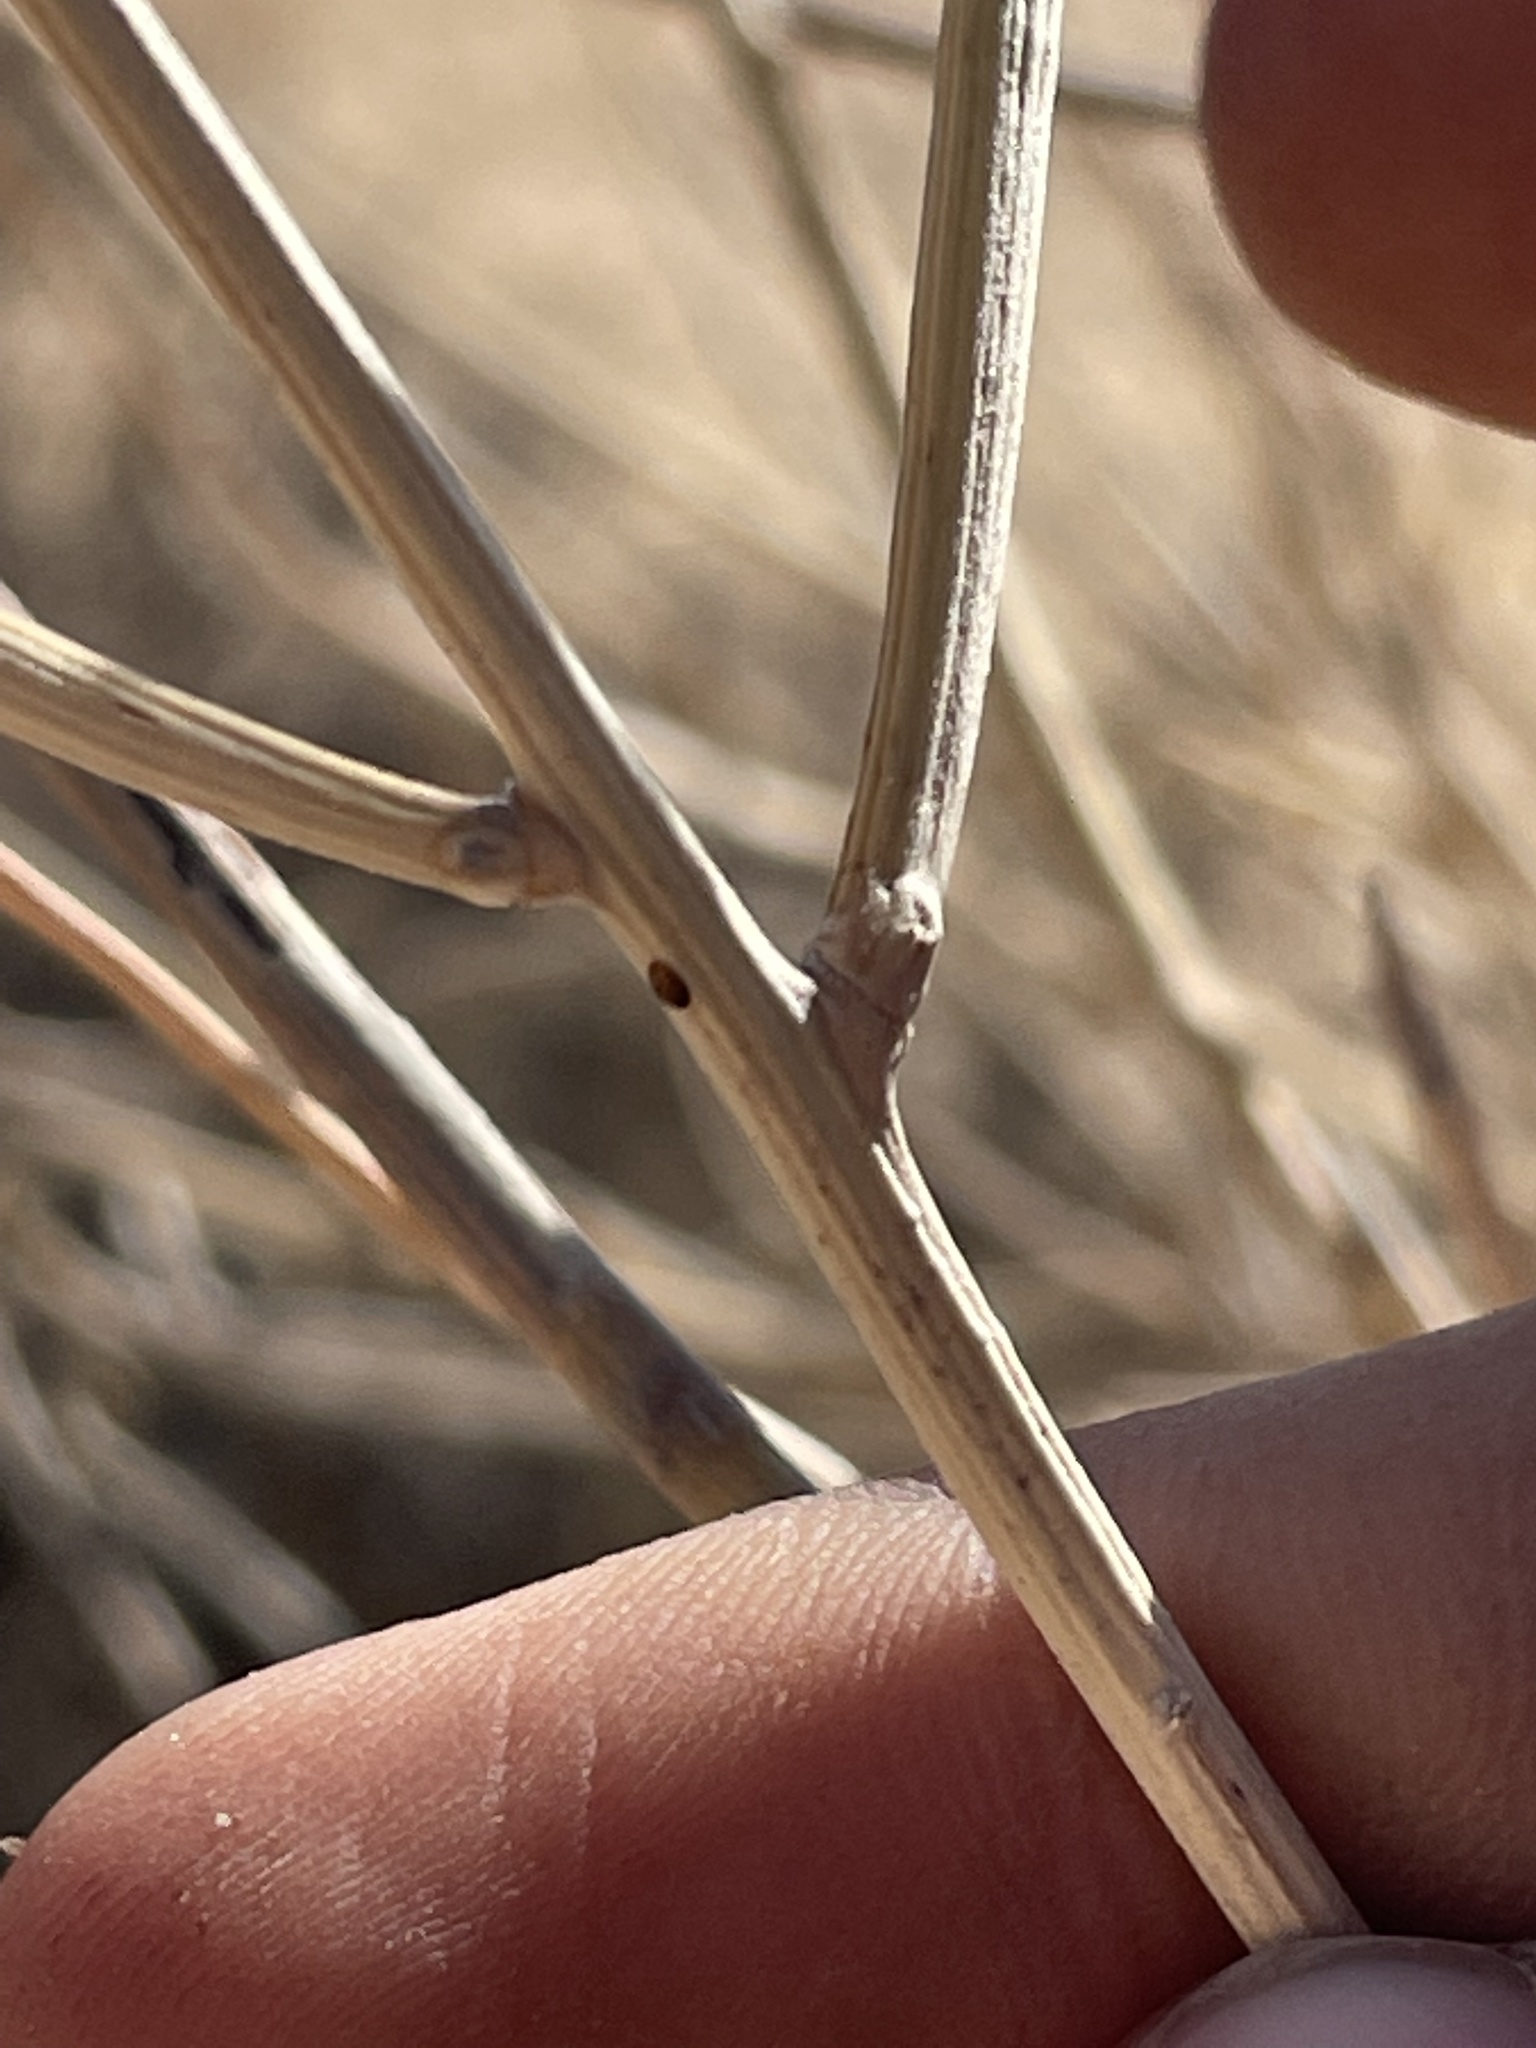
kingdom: Plantae
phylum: Tracheophyta
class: Magnoliopsida
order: Fabales
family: Fabaceae
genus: Senna
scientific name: Senna armata
